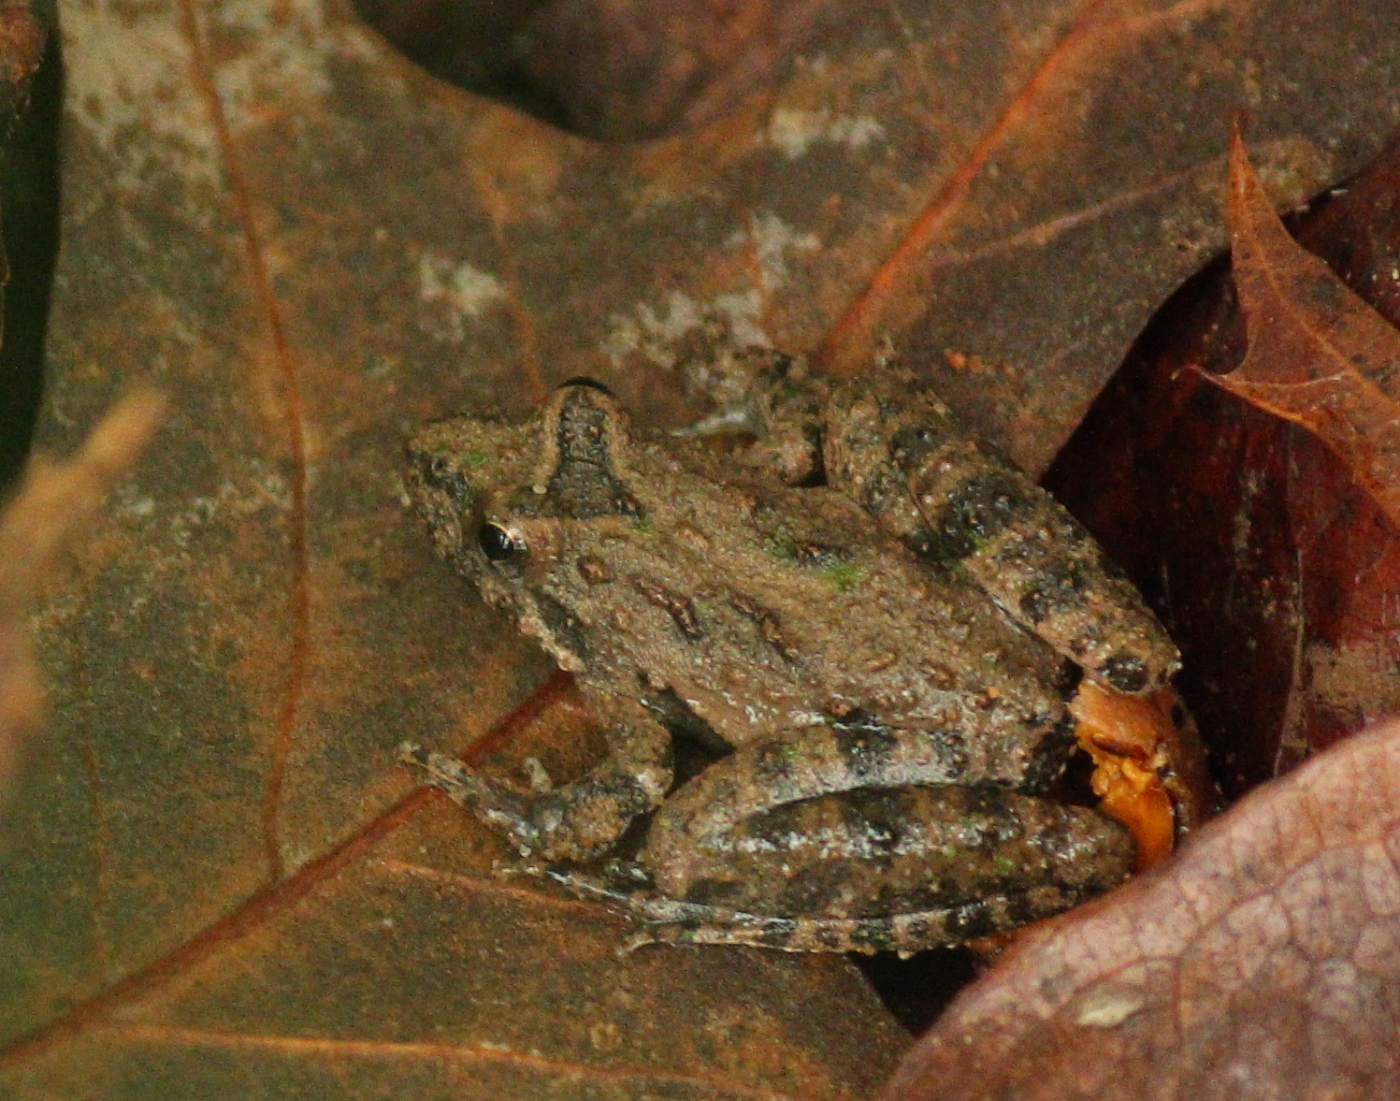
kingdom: Animalia
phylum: Chordata
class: Amphibia
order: Anura
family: Hylidae
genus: Acris
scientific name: Acris blanchardi
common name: Blanchard's cricket frog
